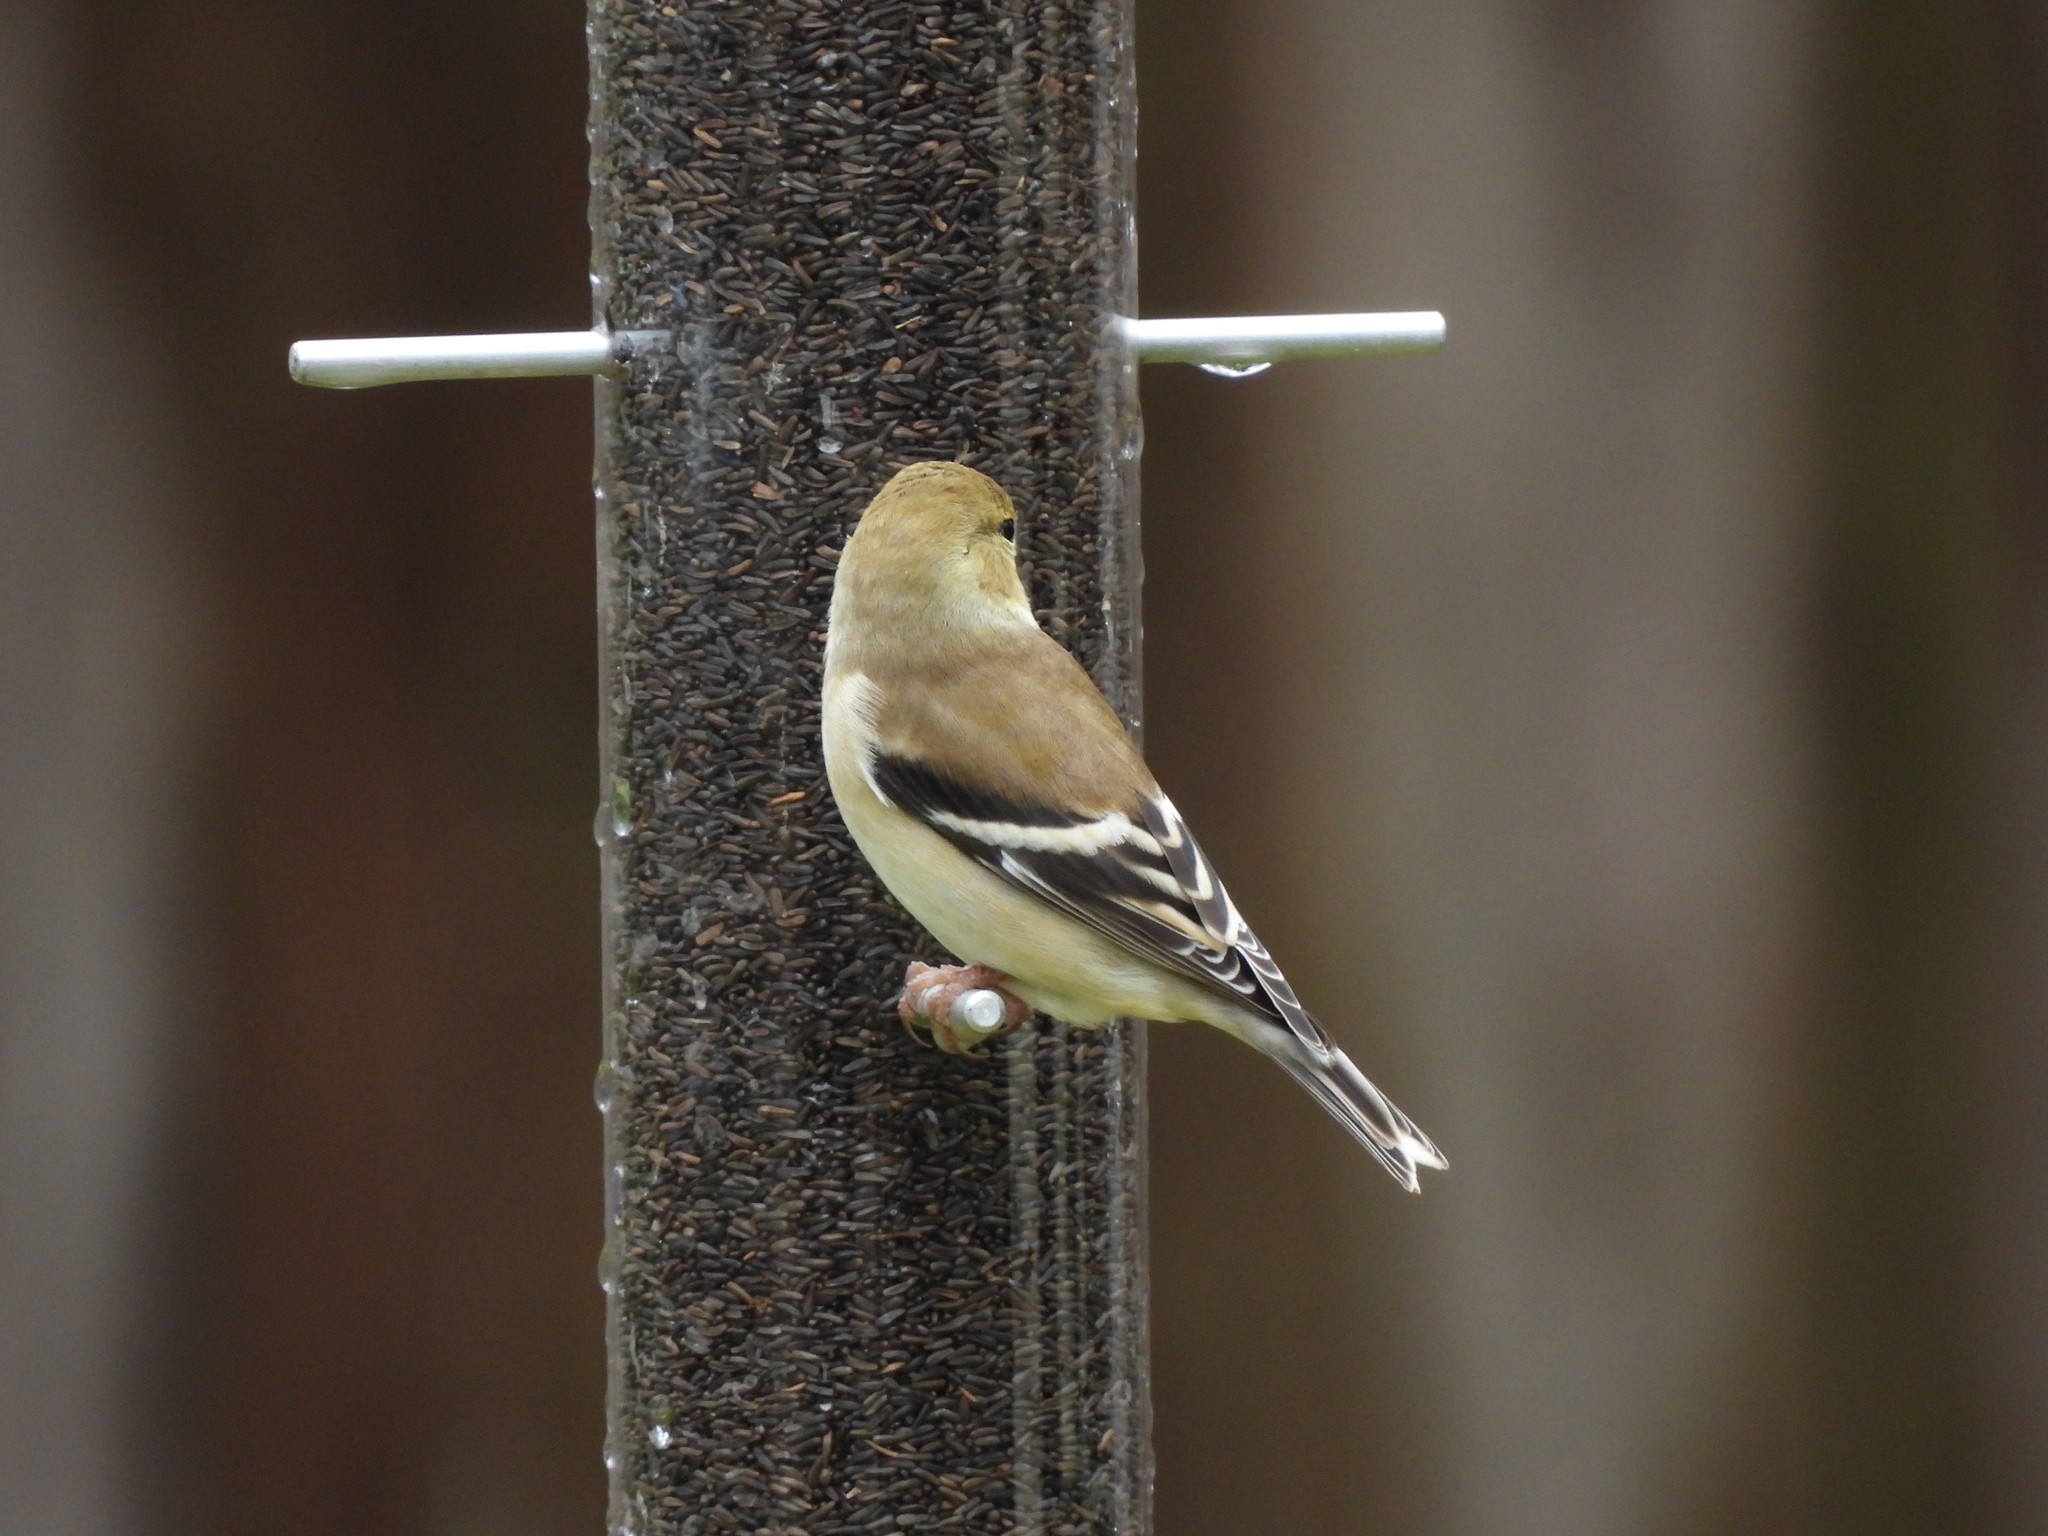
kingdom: Animalia
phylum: Chordata
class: Aves
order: Passeriformes
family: Fringillidae
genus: Spinus
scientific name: Spinus tristis
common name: American goldfinch
